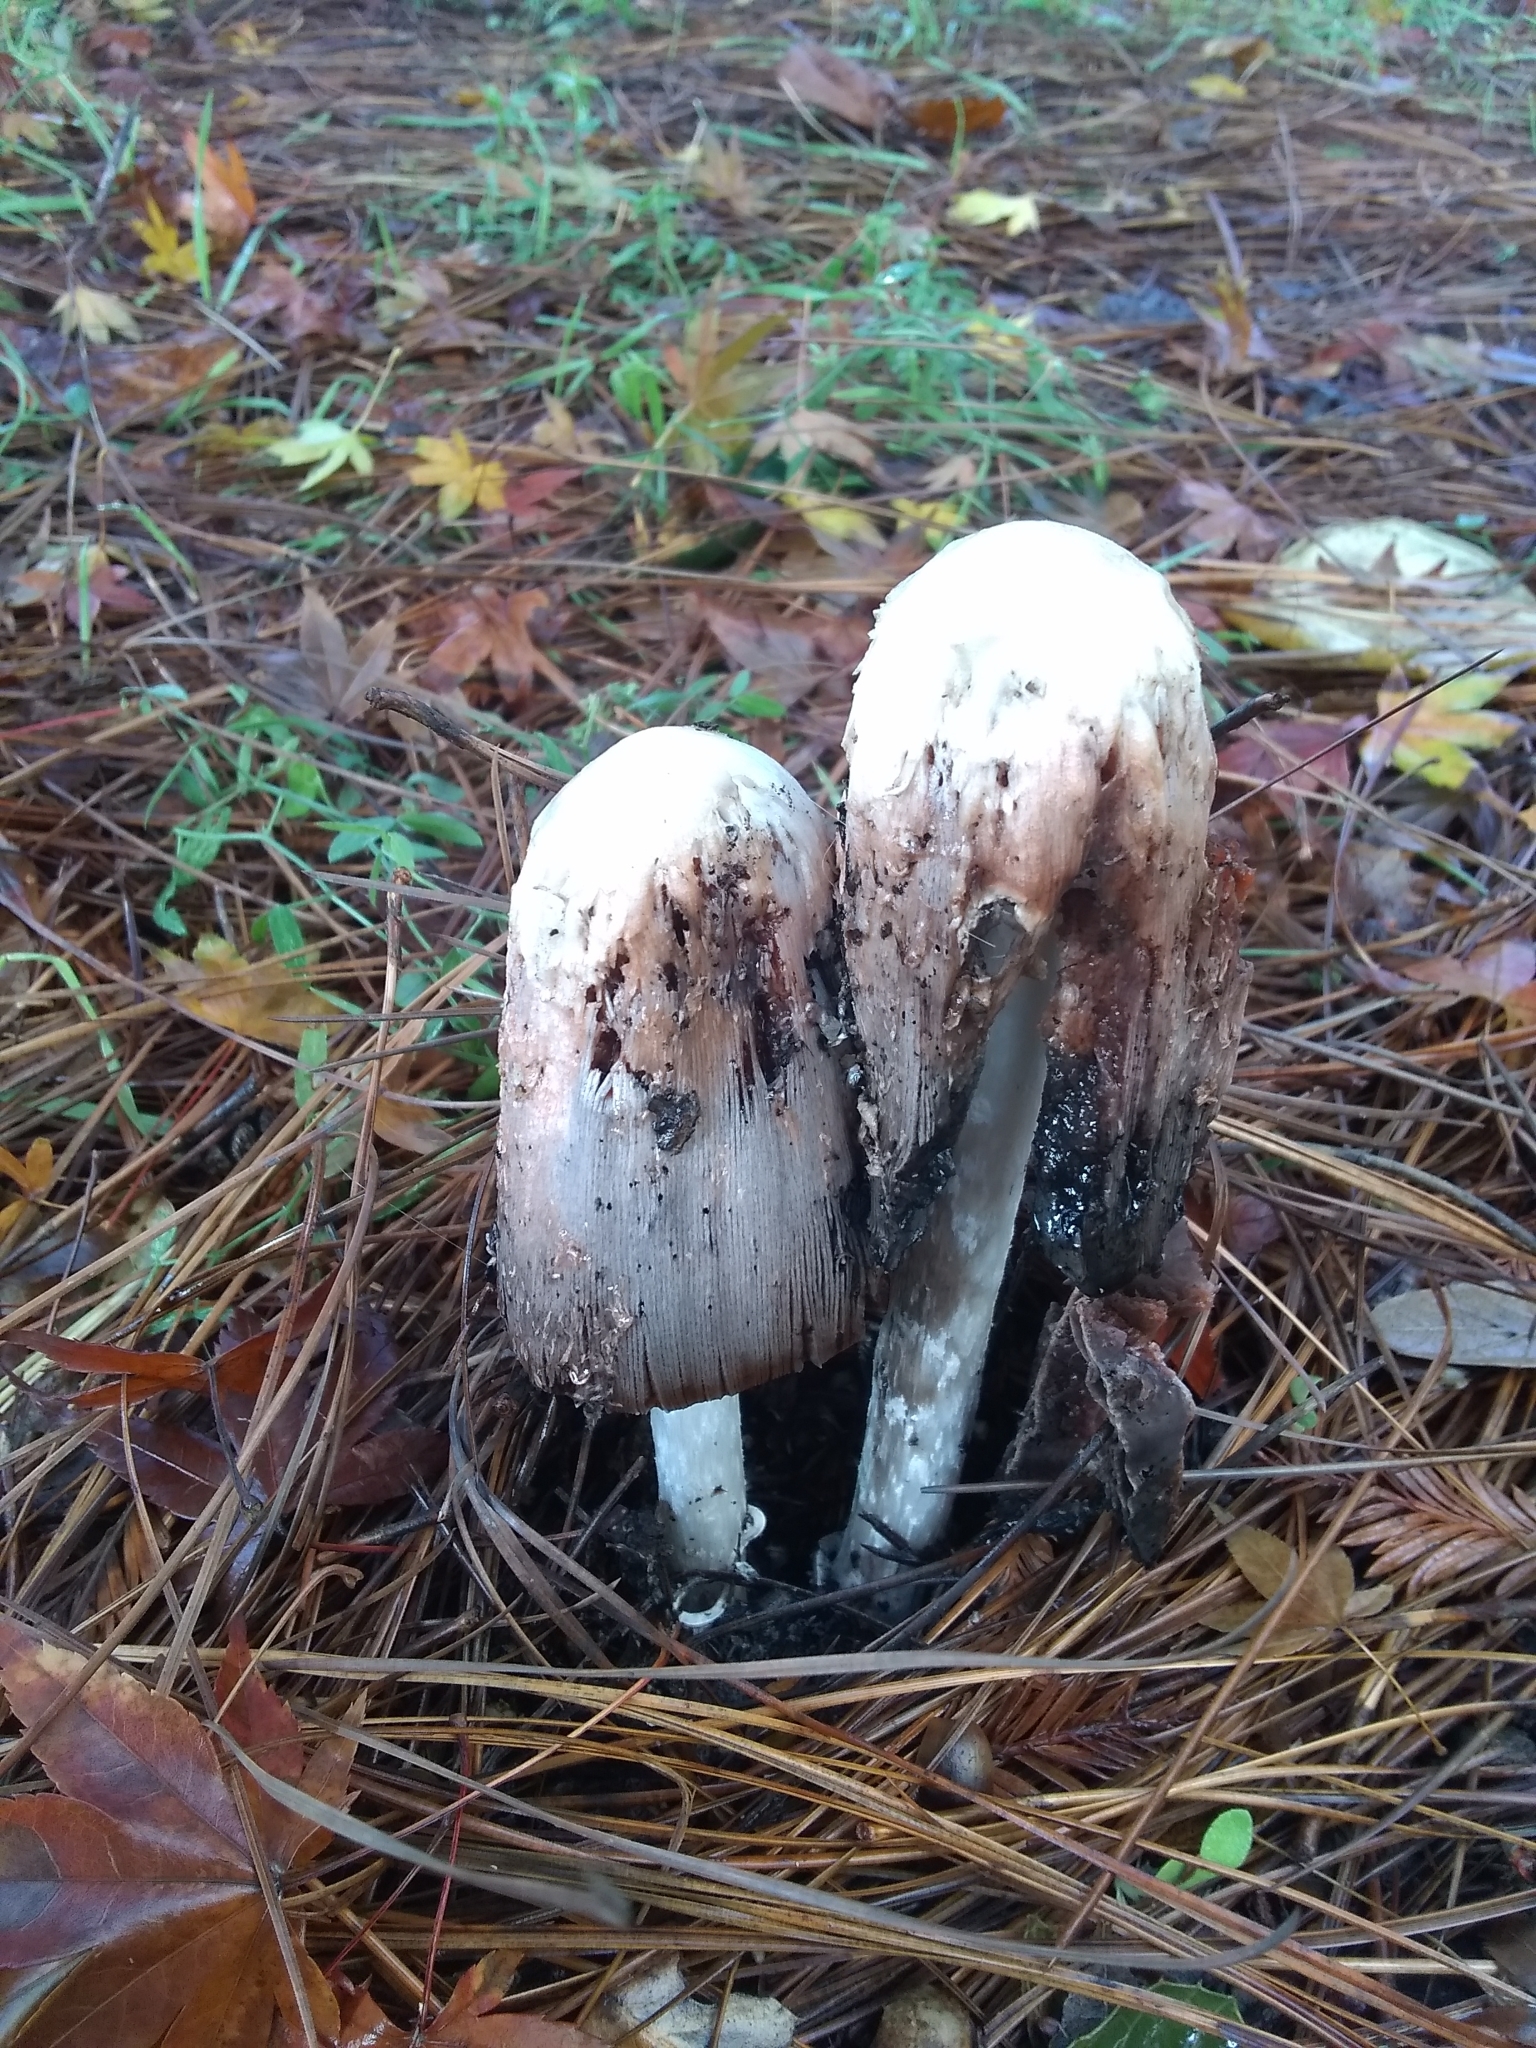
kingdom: Fungi
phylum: Basidiomycota
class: Agaricomycetes
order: Agaricales
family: Agaricaceae
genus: Coprinus
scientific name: Coprinus comatus
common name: Lawyer's wig
